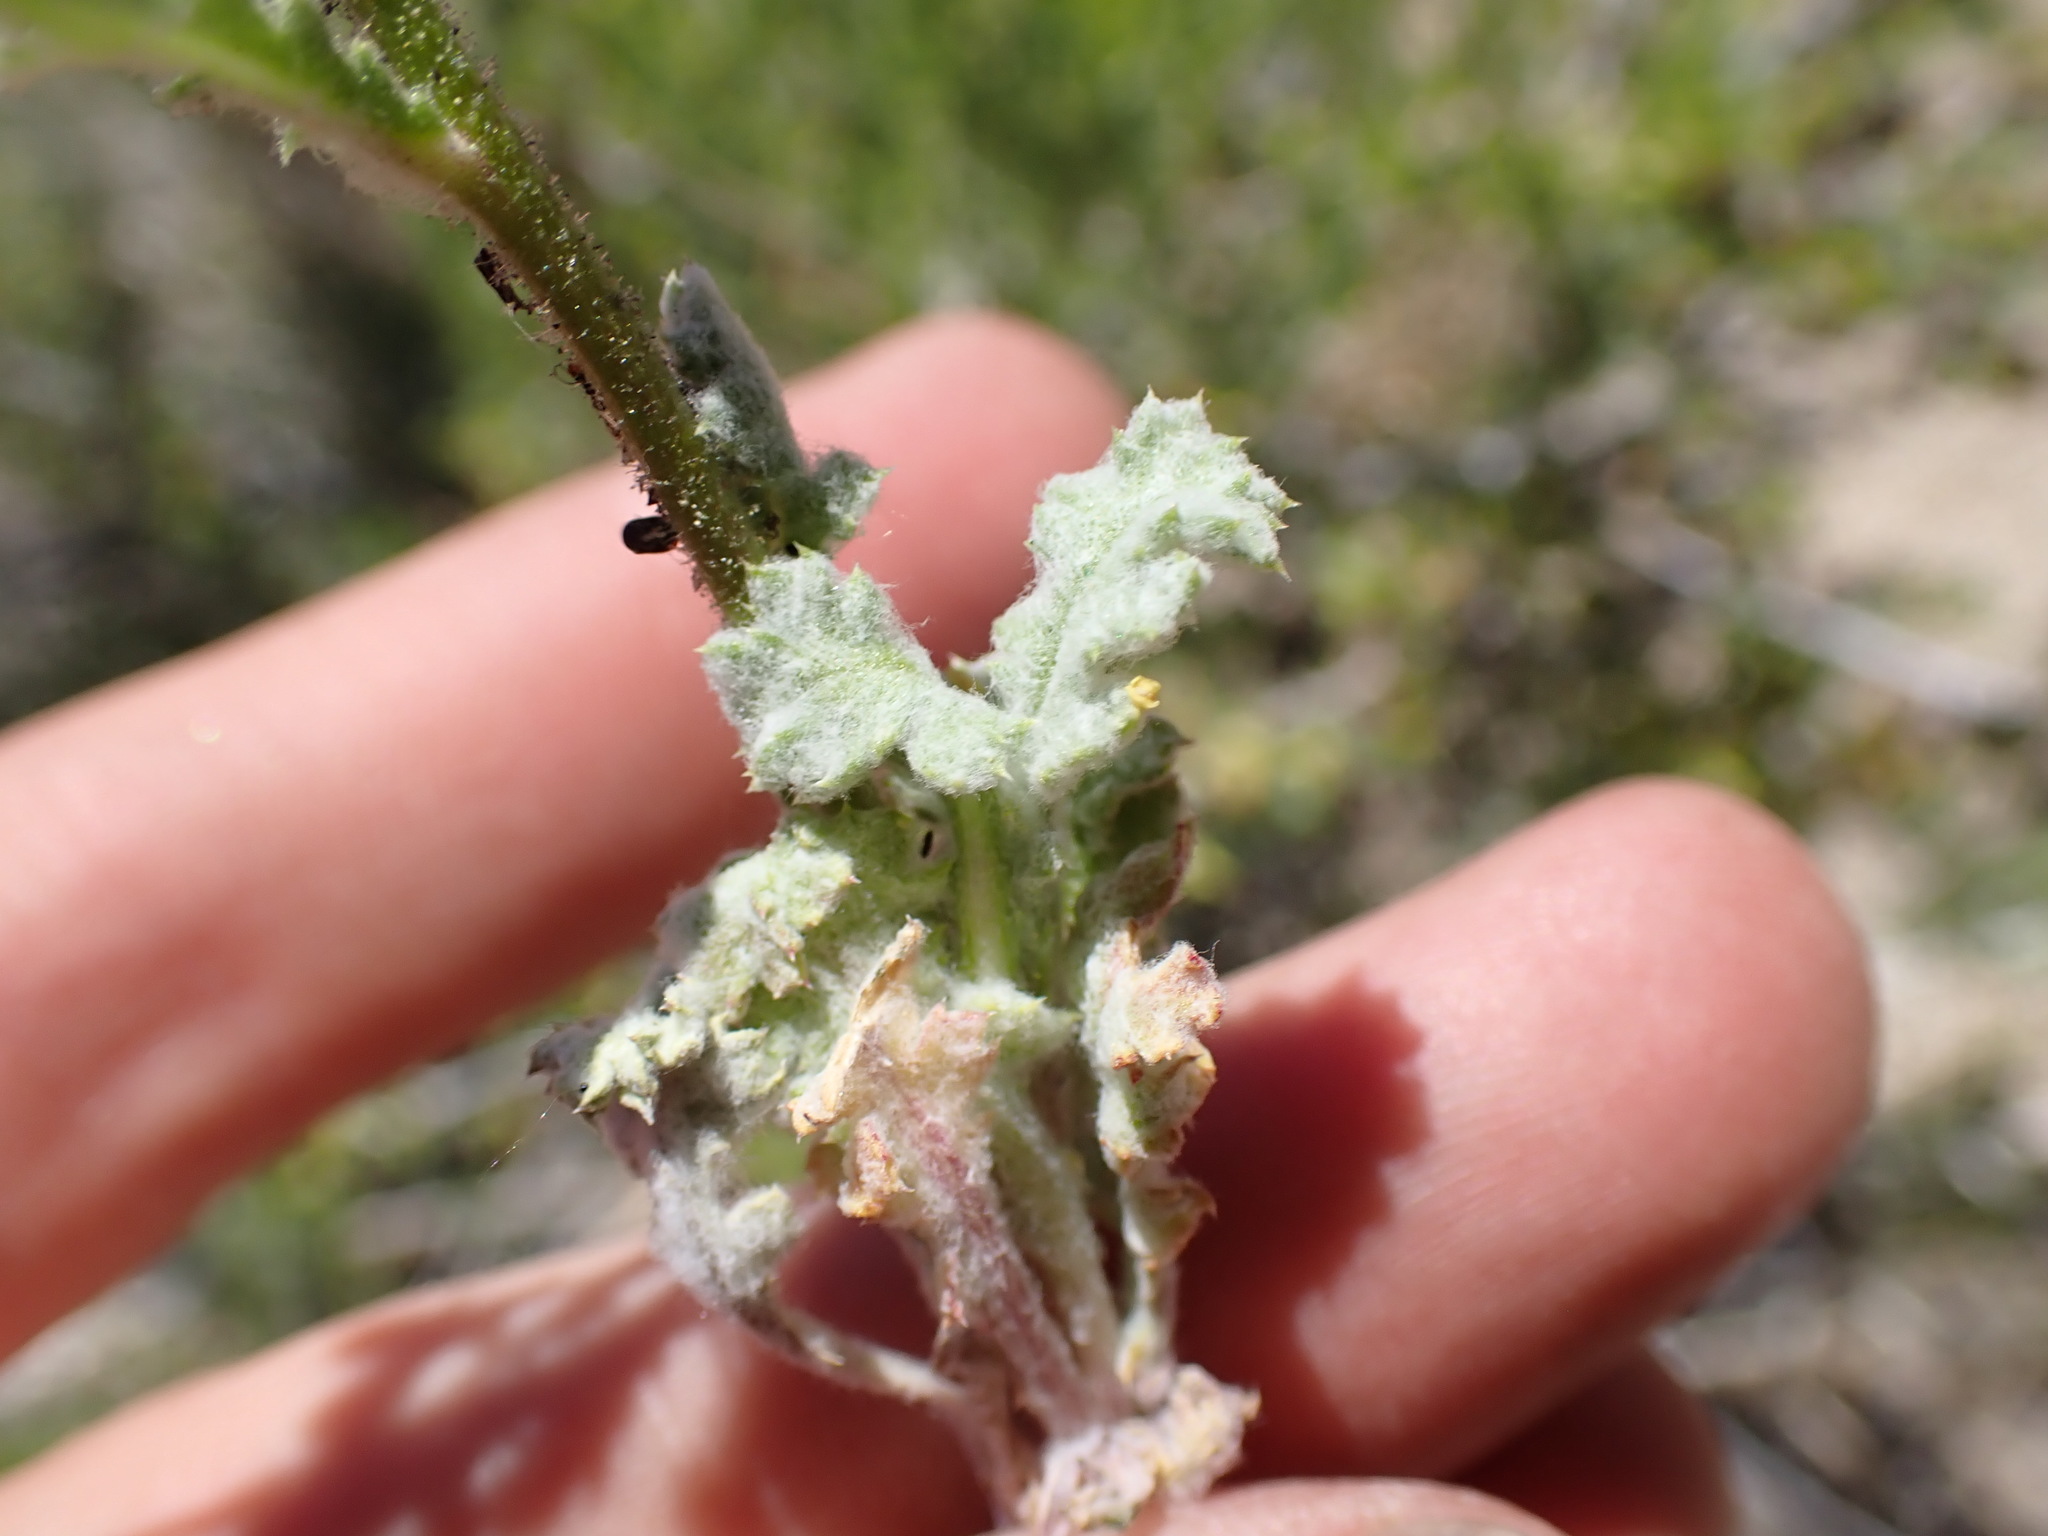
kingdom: Plantae
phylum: Tracheophyta
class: Magnoliopsida
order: Ericales
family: Polemoniaceae
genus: Gilia
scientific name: Gilia cana
